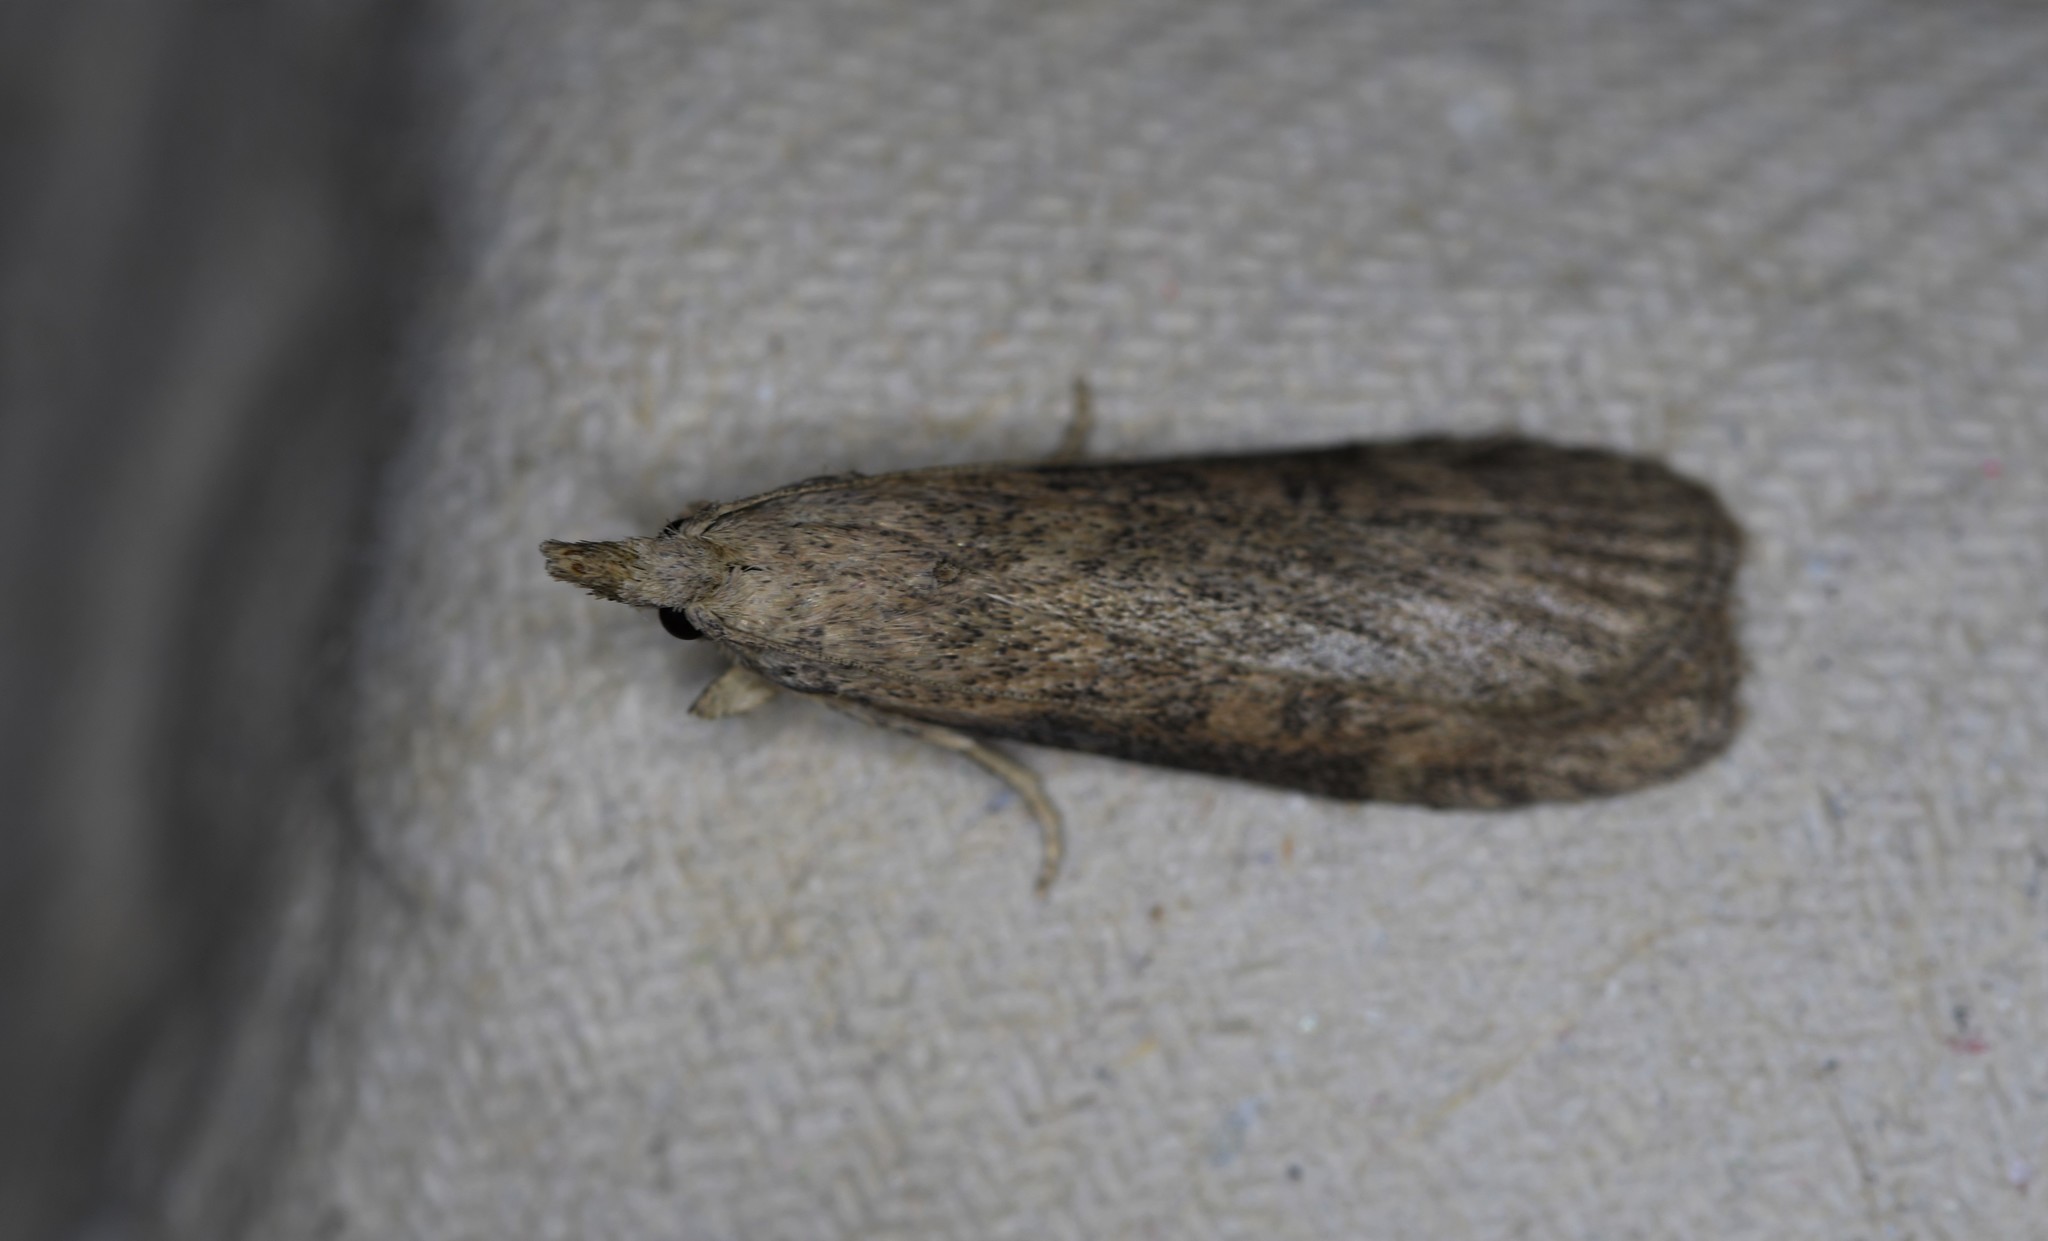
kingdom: Animalia
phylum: Arthropoda
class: Insecta
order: Lepidoptera
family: Pyralidae
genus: Lamoria
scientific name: Lamoria anella
